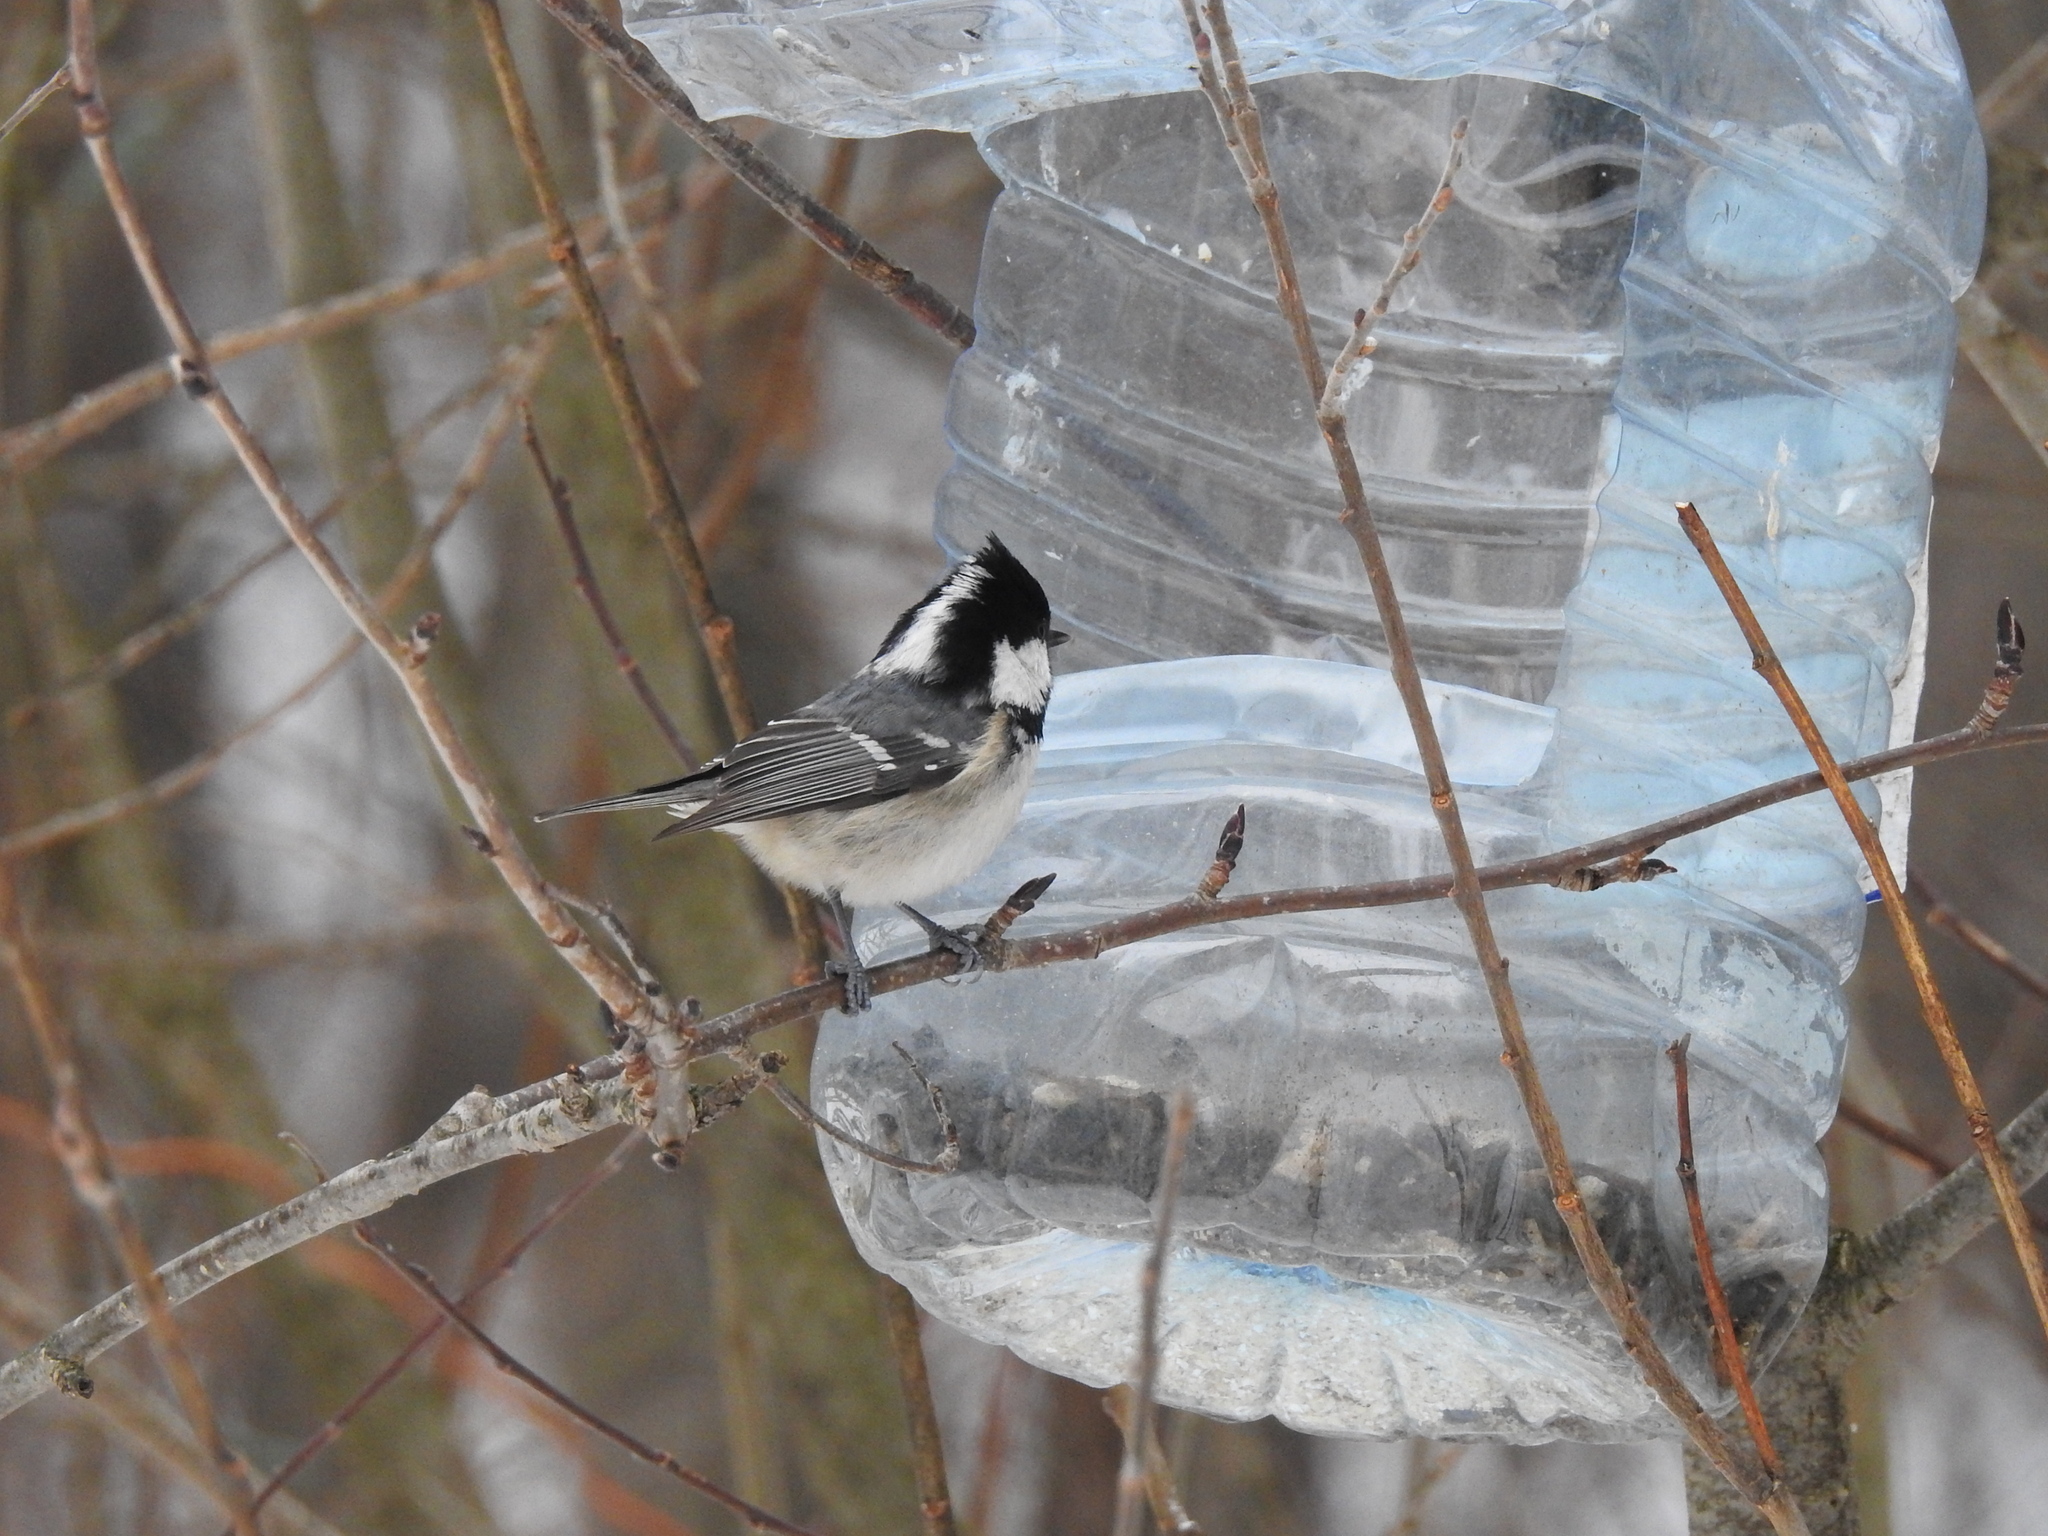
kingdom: Animalia
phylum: Chordata
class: Aves
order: Passeriformes
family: Paridae
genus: Periparus
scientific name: Periparus ater
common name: Coal tit
